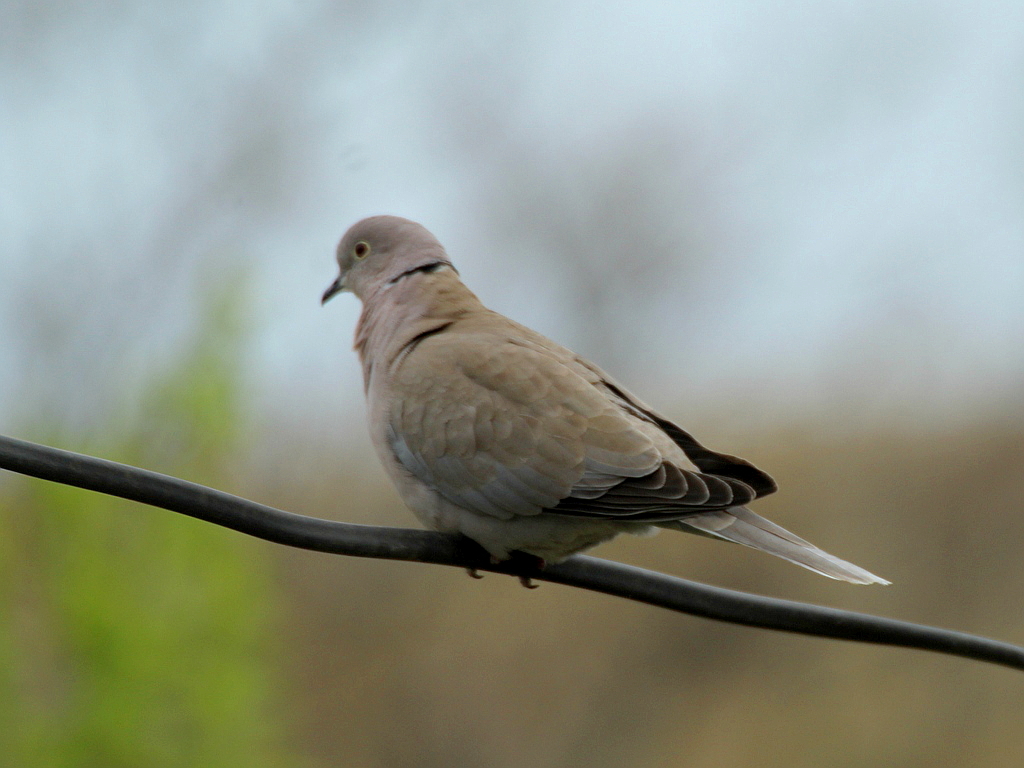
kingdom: Animalia
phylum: Chordata
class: Aves
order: Columbiformes
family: Columbidae
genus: Streptopelia
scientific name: Streptopelia decaocto
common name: Eurasian collared dove
